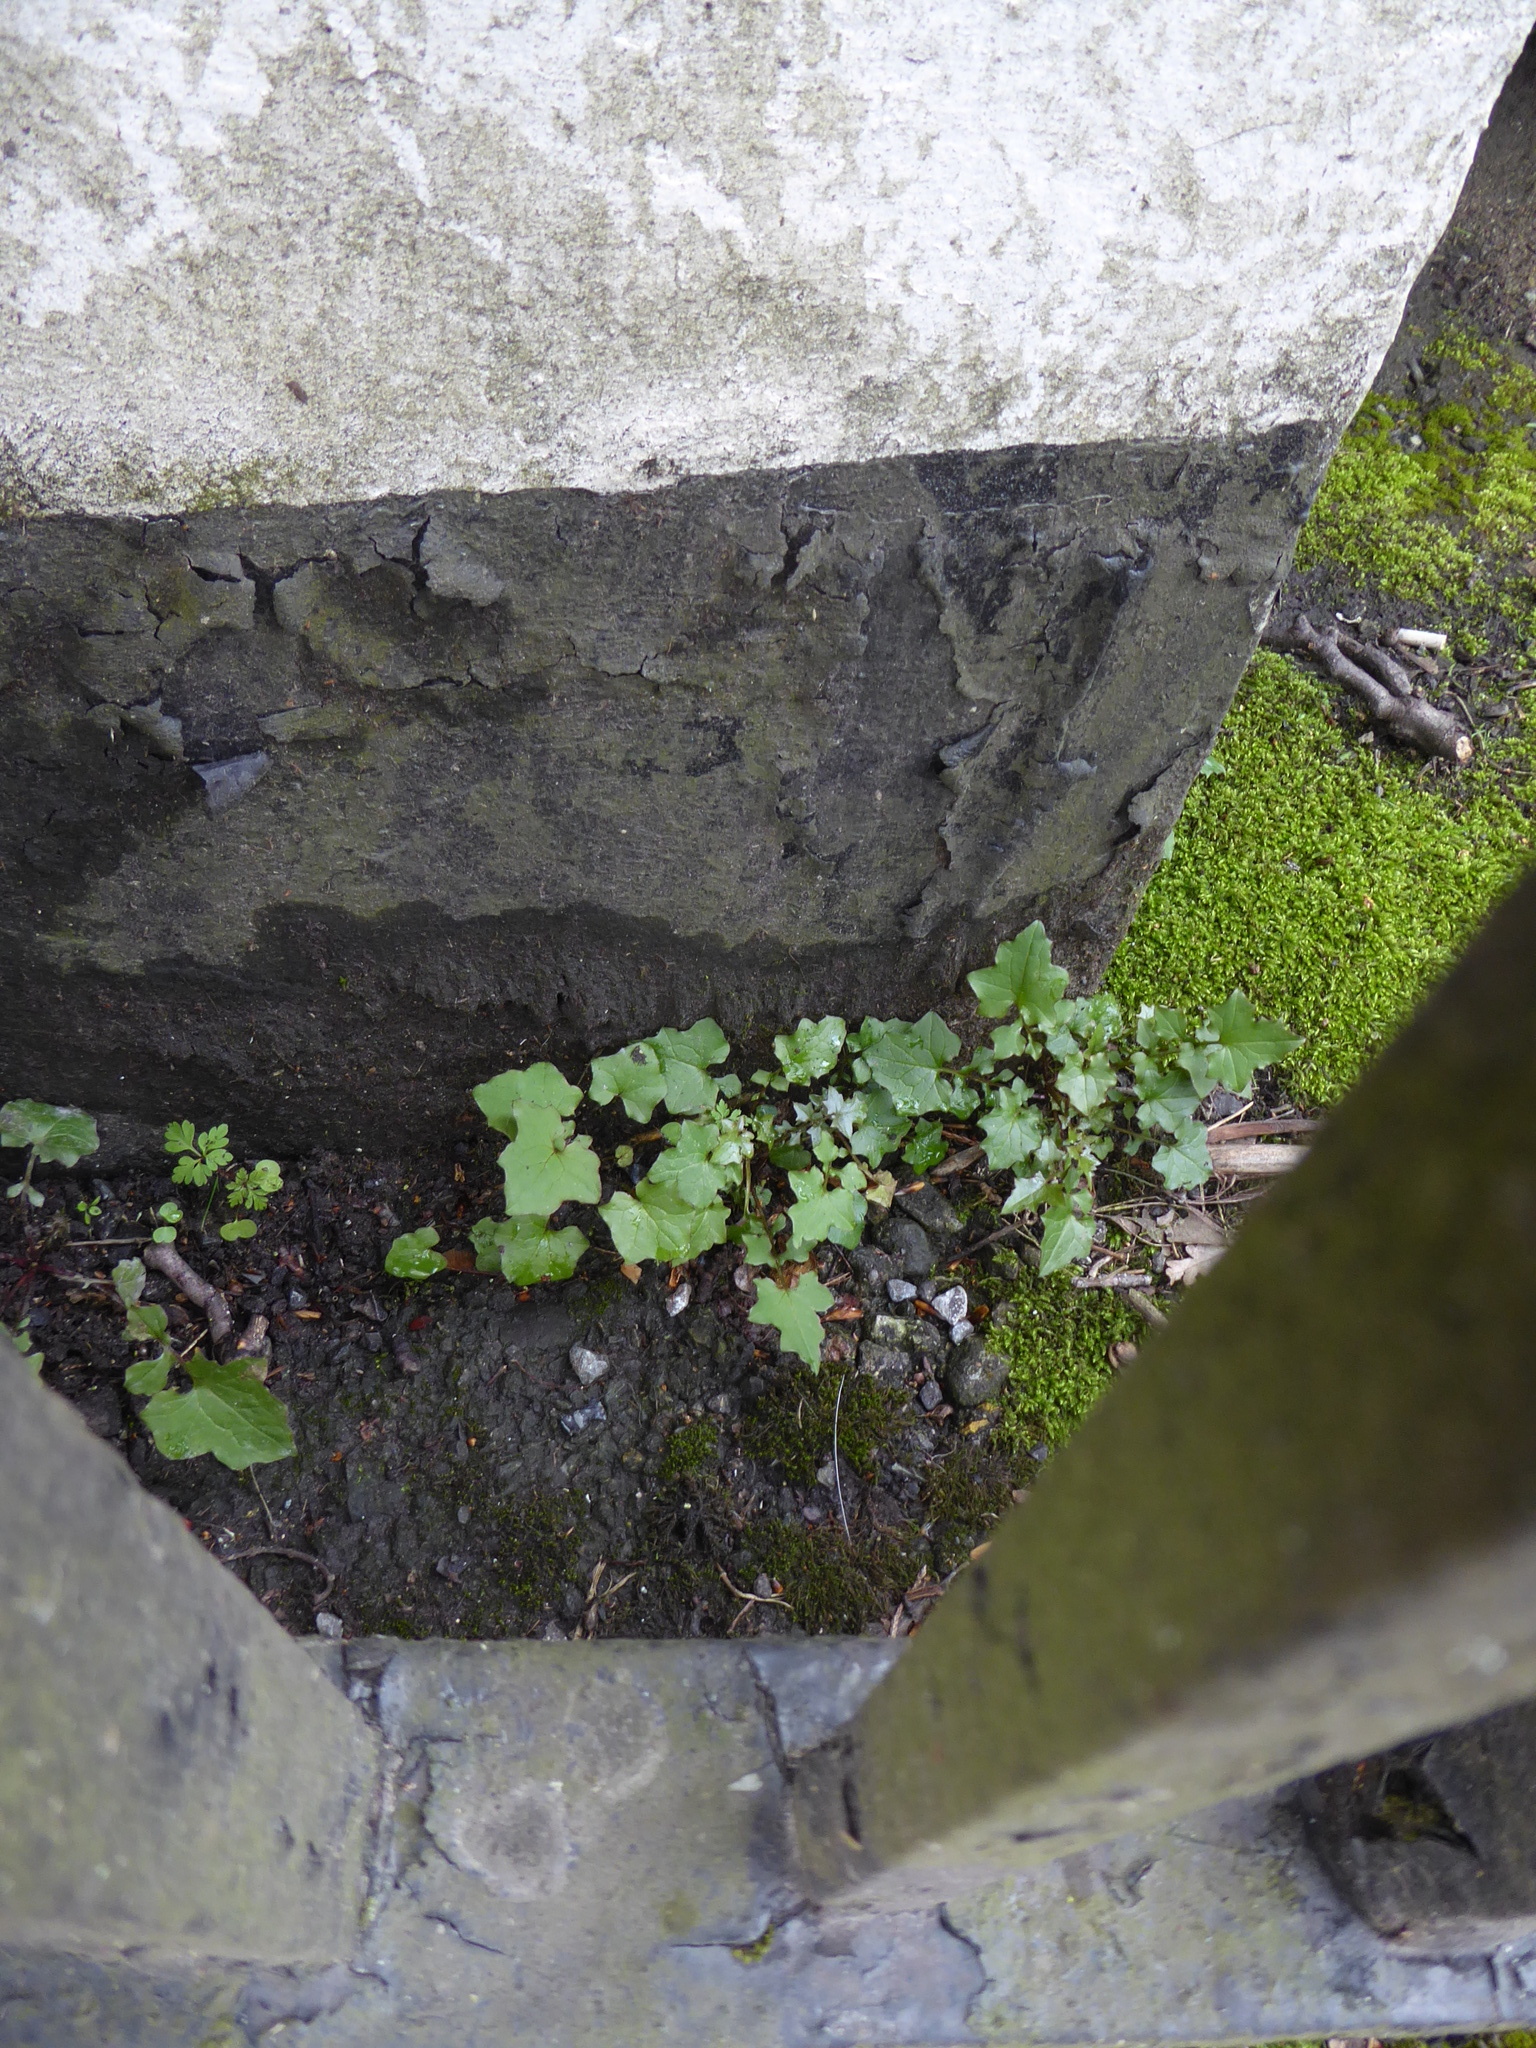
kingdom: Plantae
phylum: Tracheophyta
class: Magnoliopsida
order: Asterales
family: Asteraceae
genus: Mycelis
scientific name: Mycelis muralis
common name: Wall lettuce
